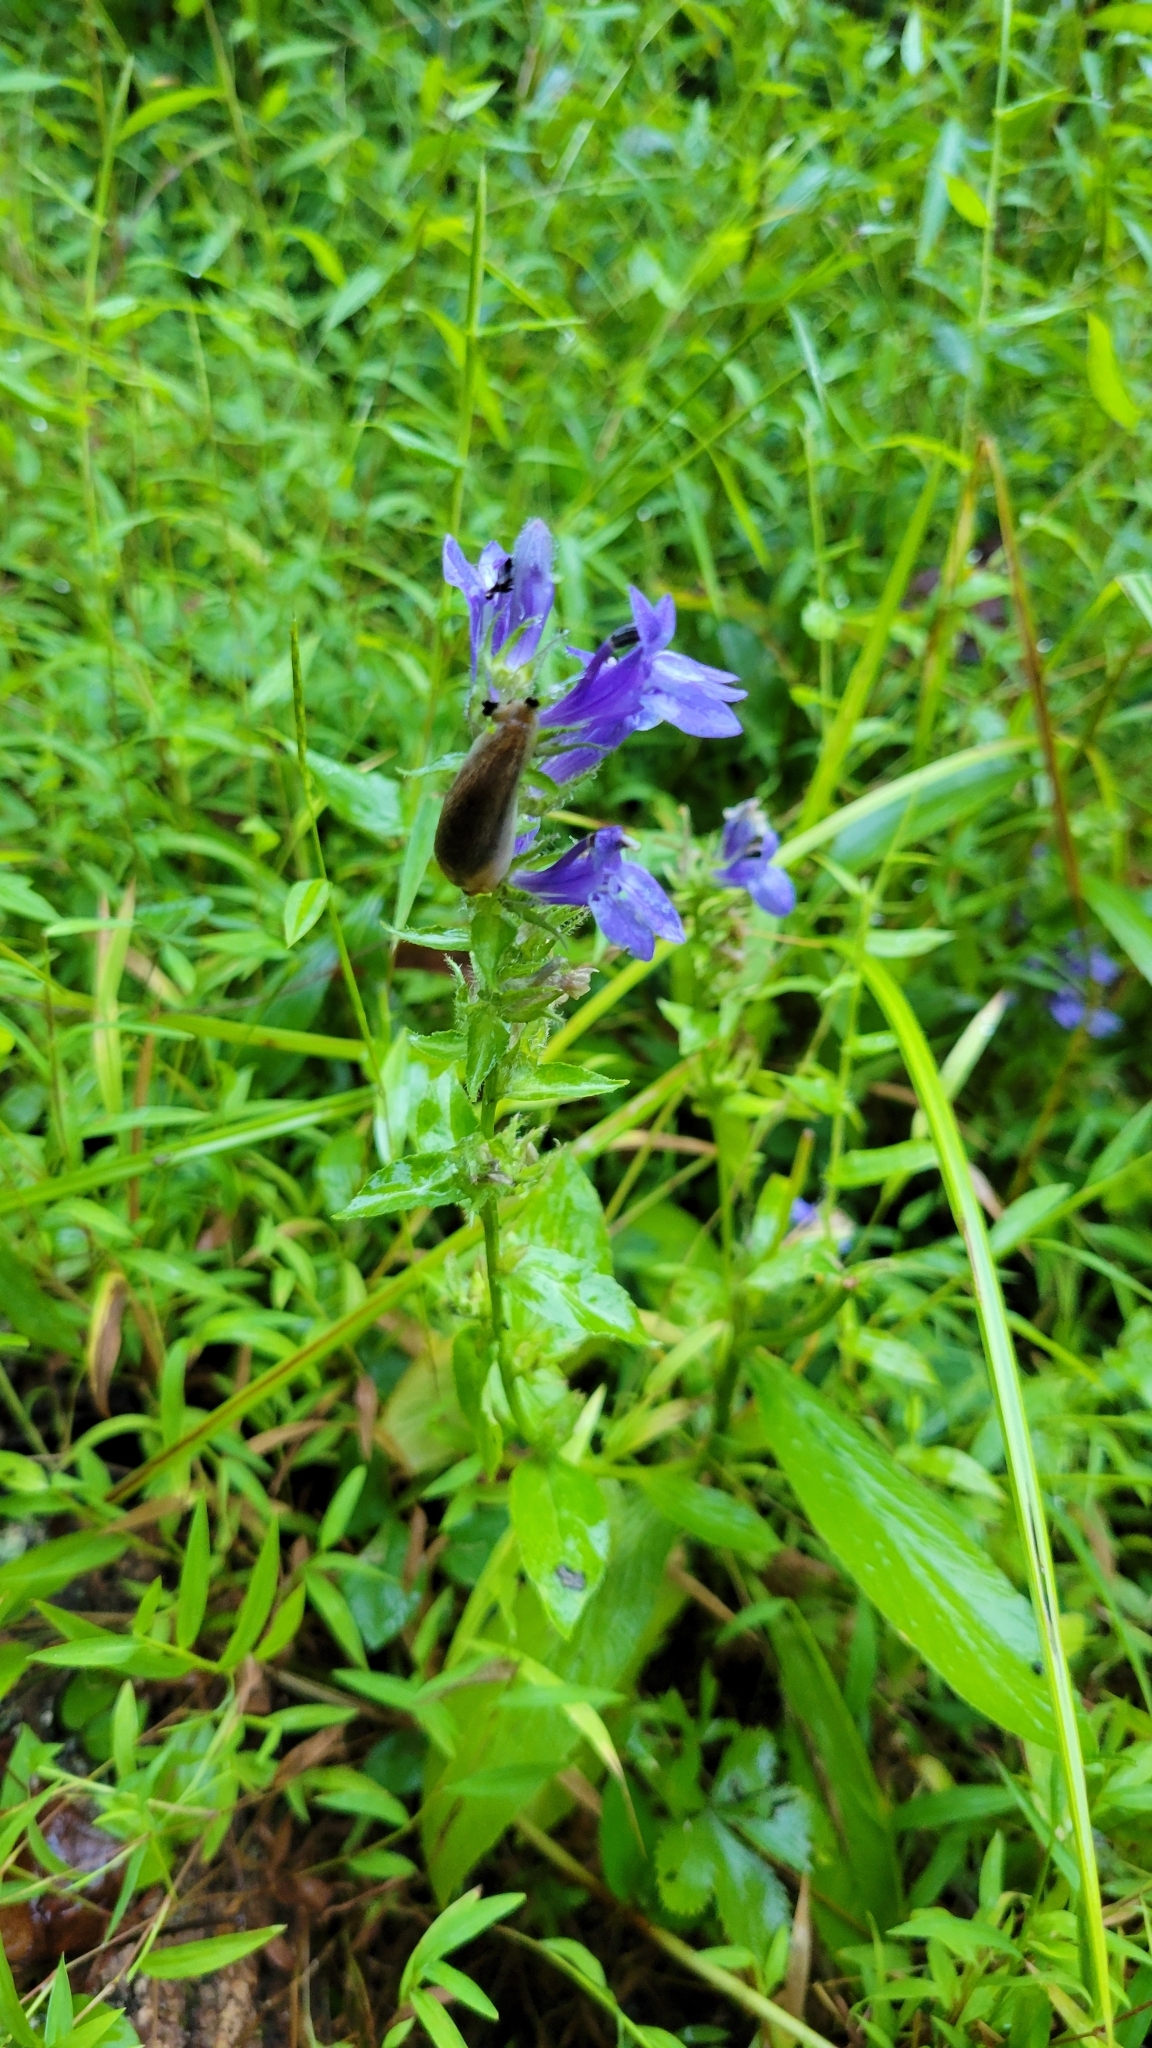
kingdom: Plantae
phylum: Tracheophyta
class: Magnoliopsida
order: Asterales
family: Campanulaceae
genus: Lobelia
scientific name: Lobelia siphilitica
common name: Great lobelia
